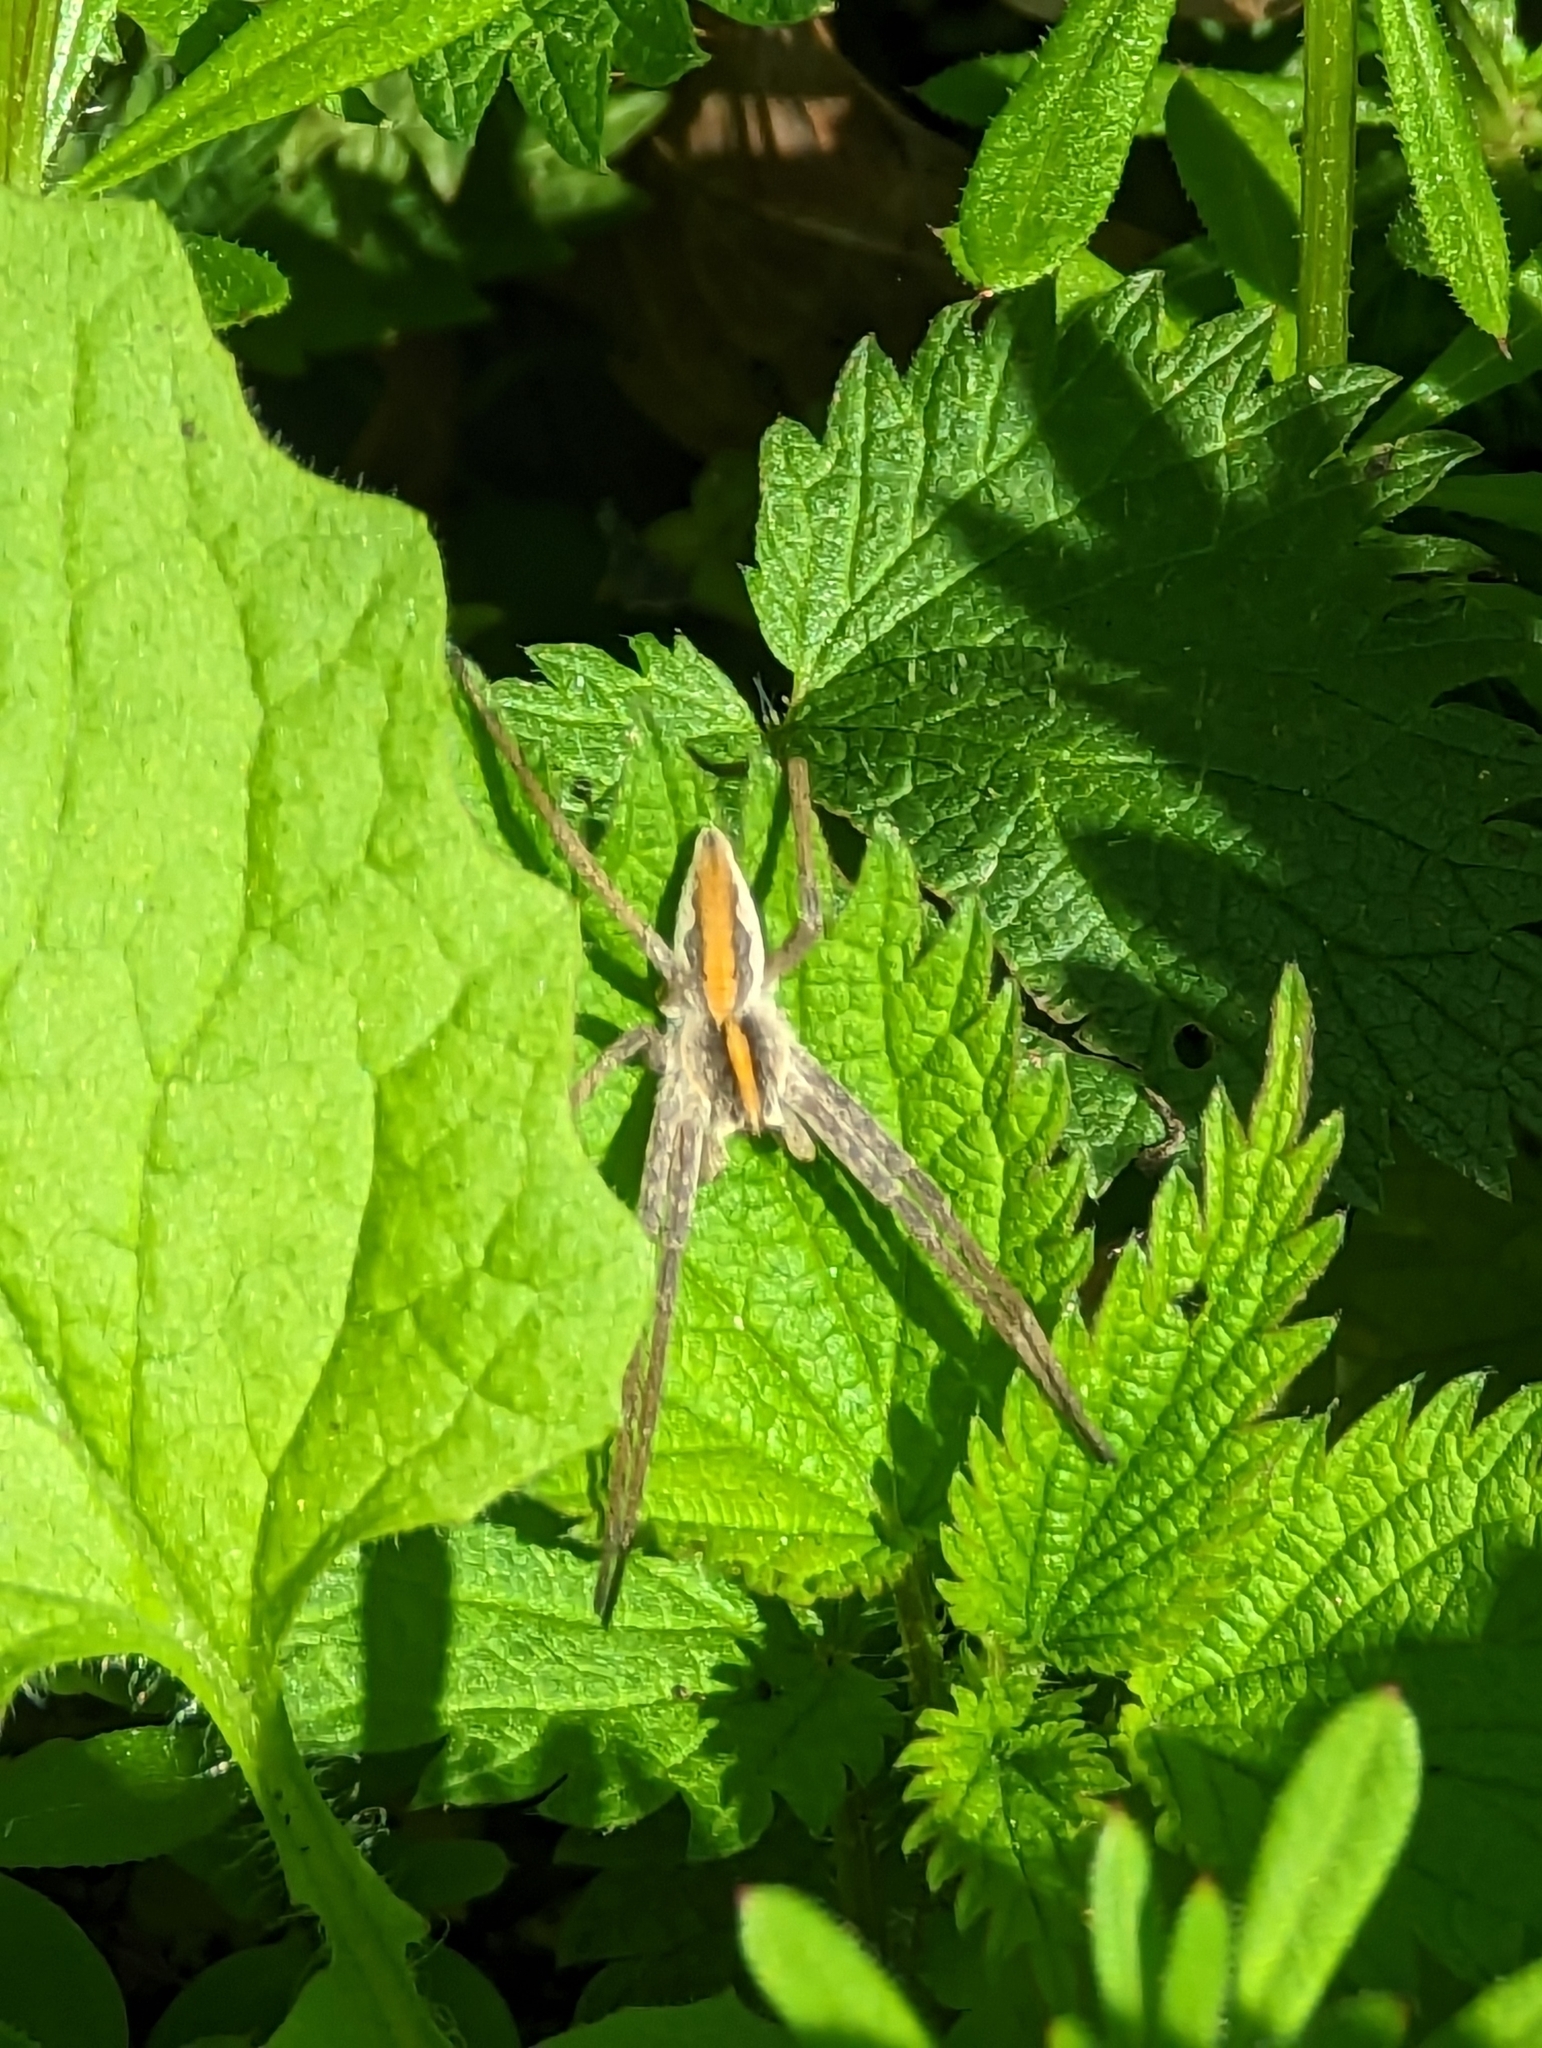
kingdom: Animalia
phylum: Arthropoda
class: Arachnida
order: Araneae
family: Pisauridae
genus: Pisaura
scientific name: Pisaura mirabilis
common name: Tent spider
